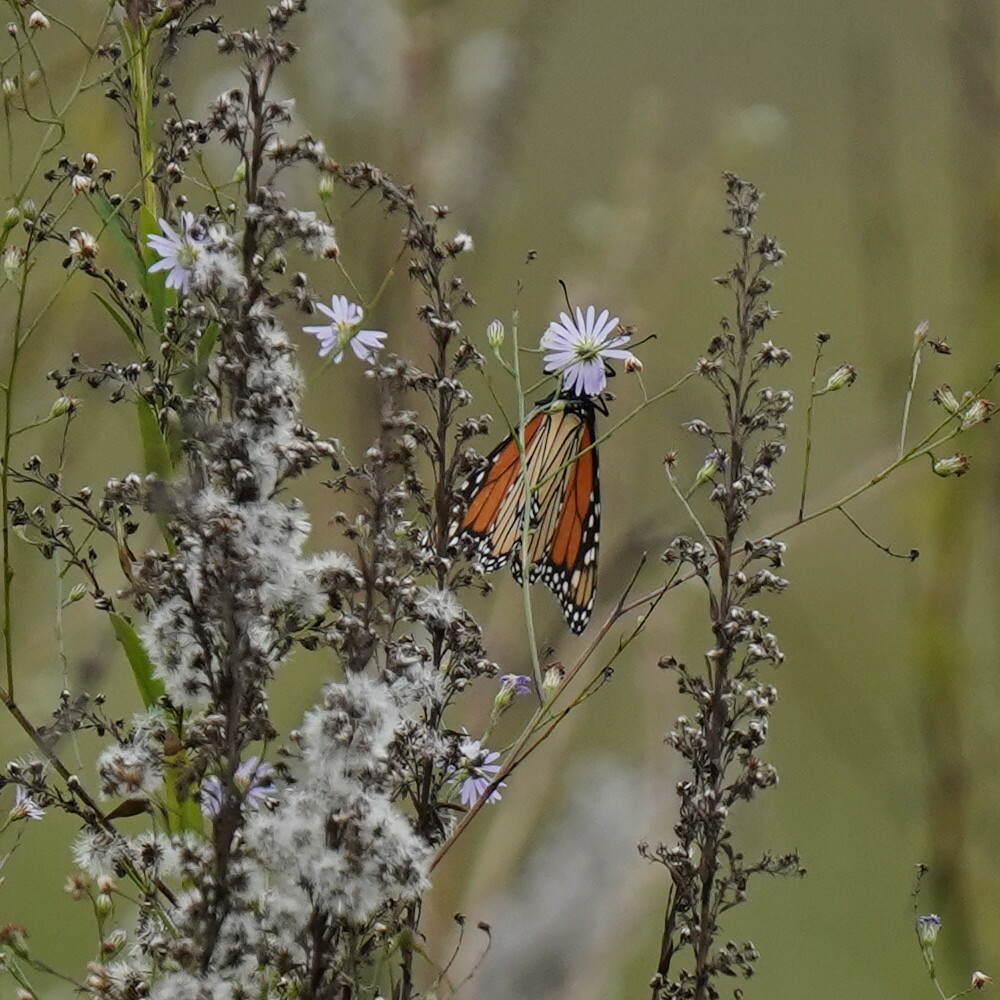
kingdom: Animalia
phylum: Arthropoda
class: Insecta
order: Lepidoptera
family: Nymphalidae
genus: Danaus
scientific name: Danaus plexippus
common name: Monarch
